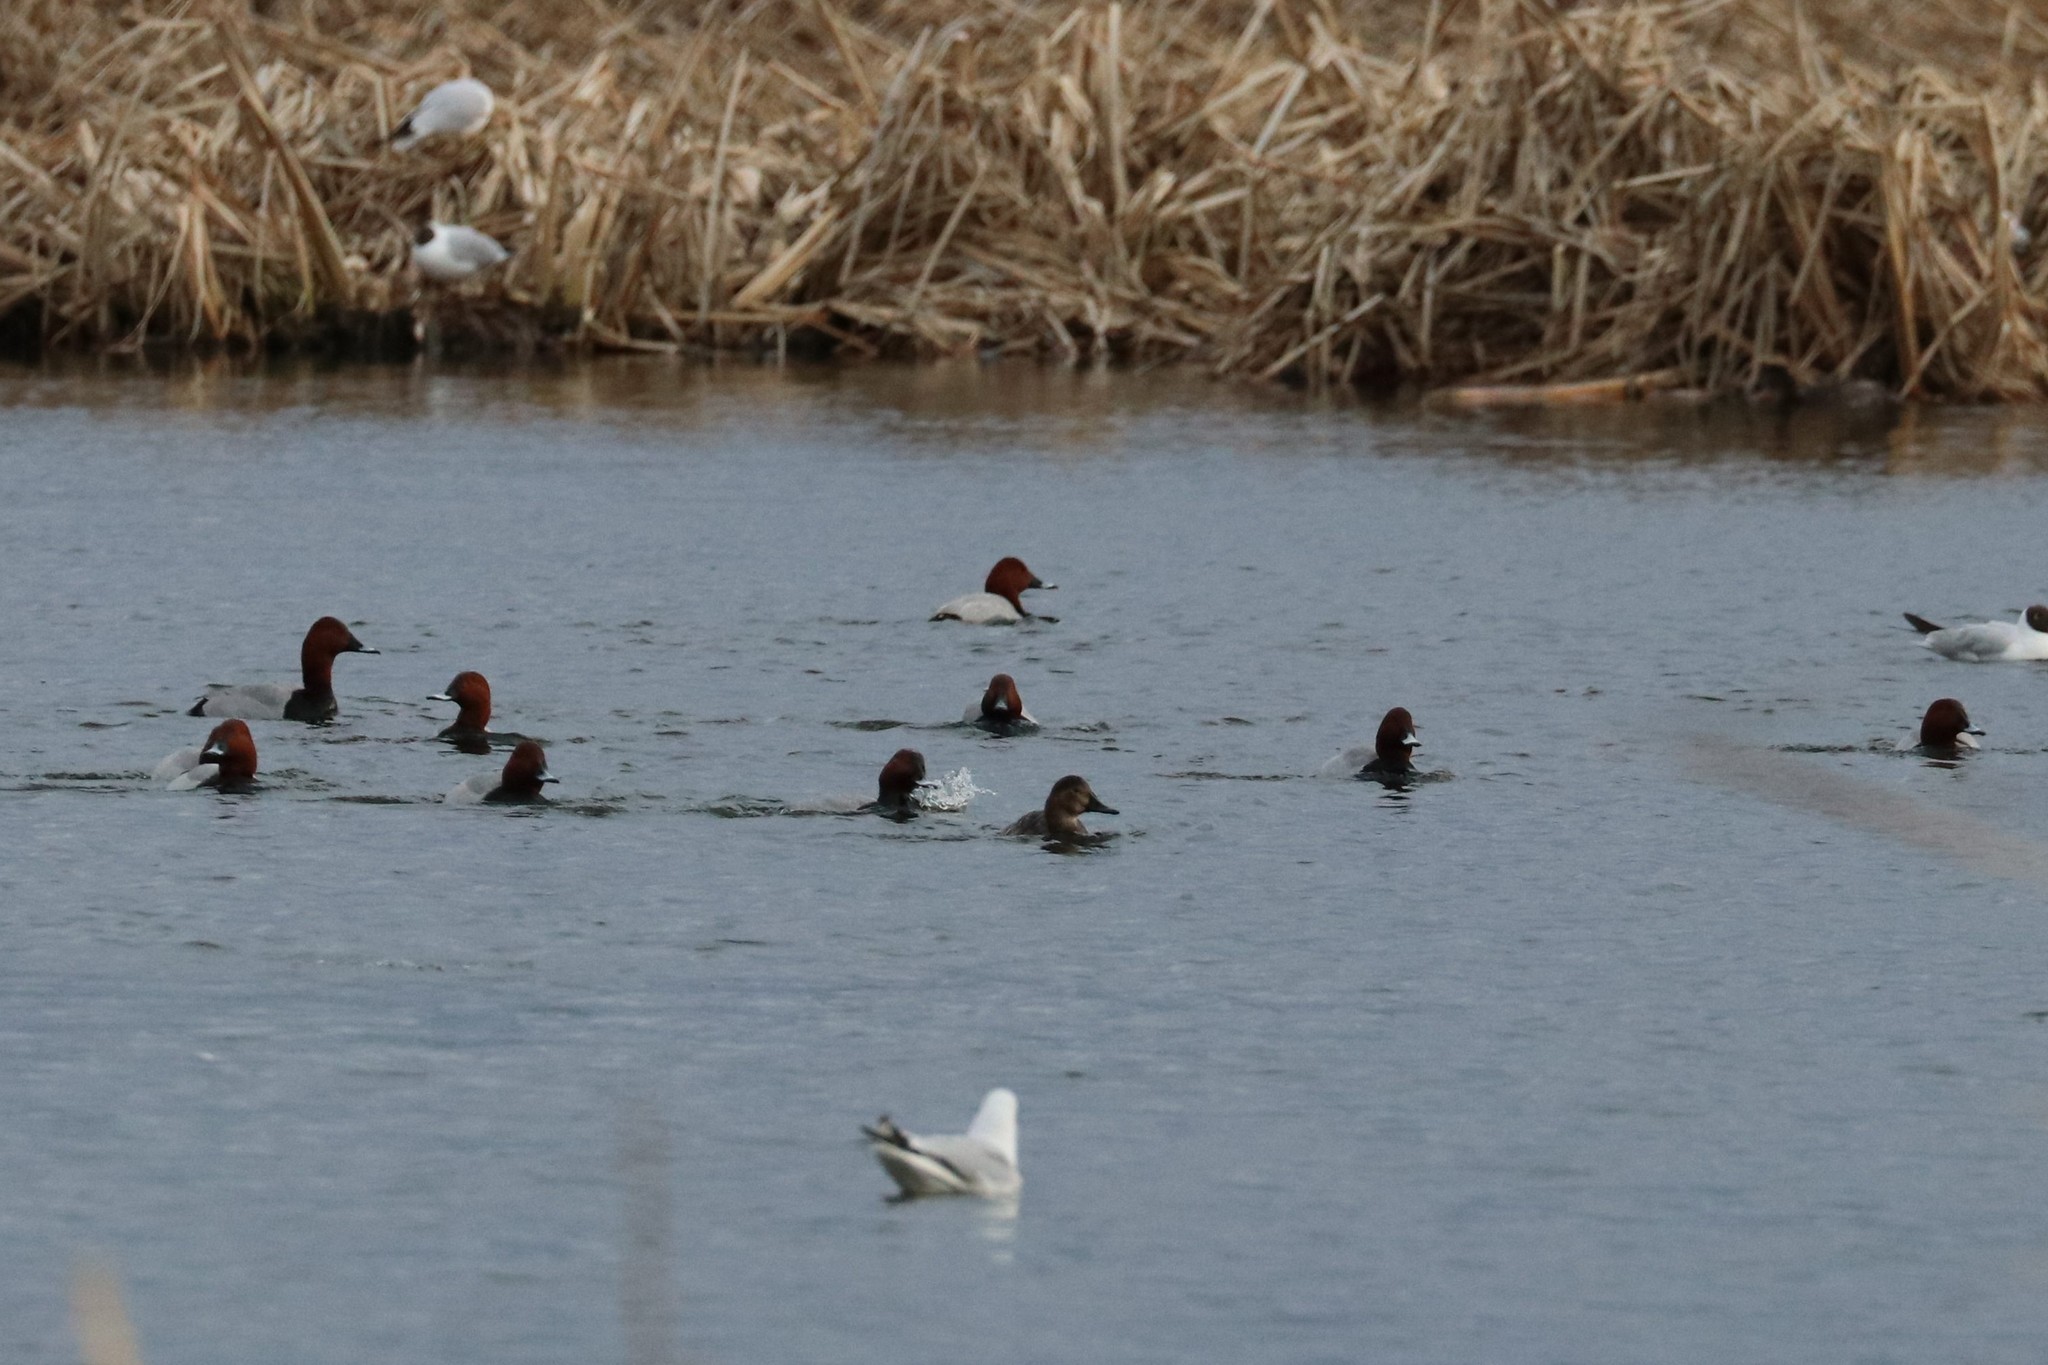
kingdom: Animalia
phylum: Chordata
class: Aves
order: Anseriformes
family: Anatidae
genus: Aythya
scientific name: Aythya ferina
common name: Common pochard
